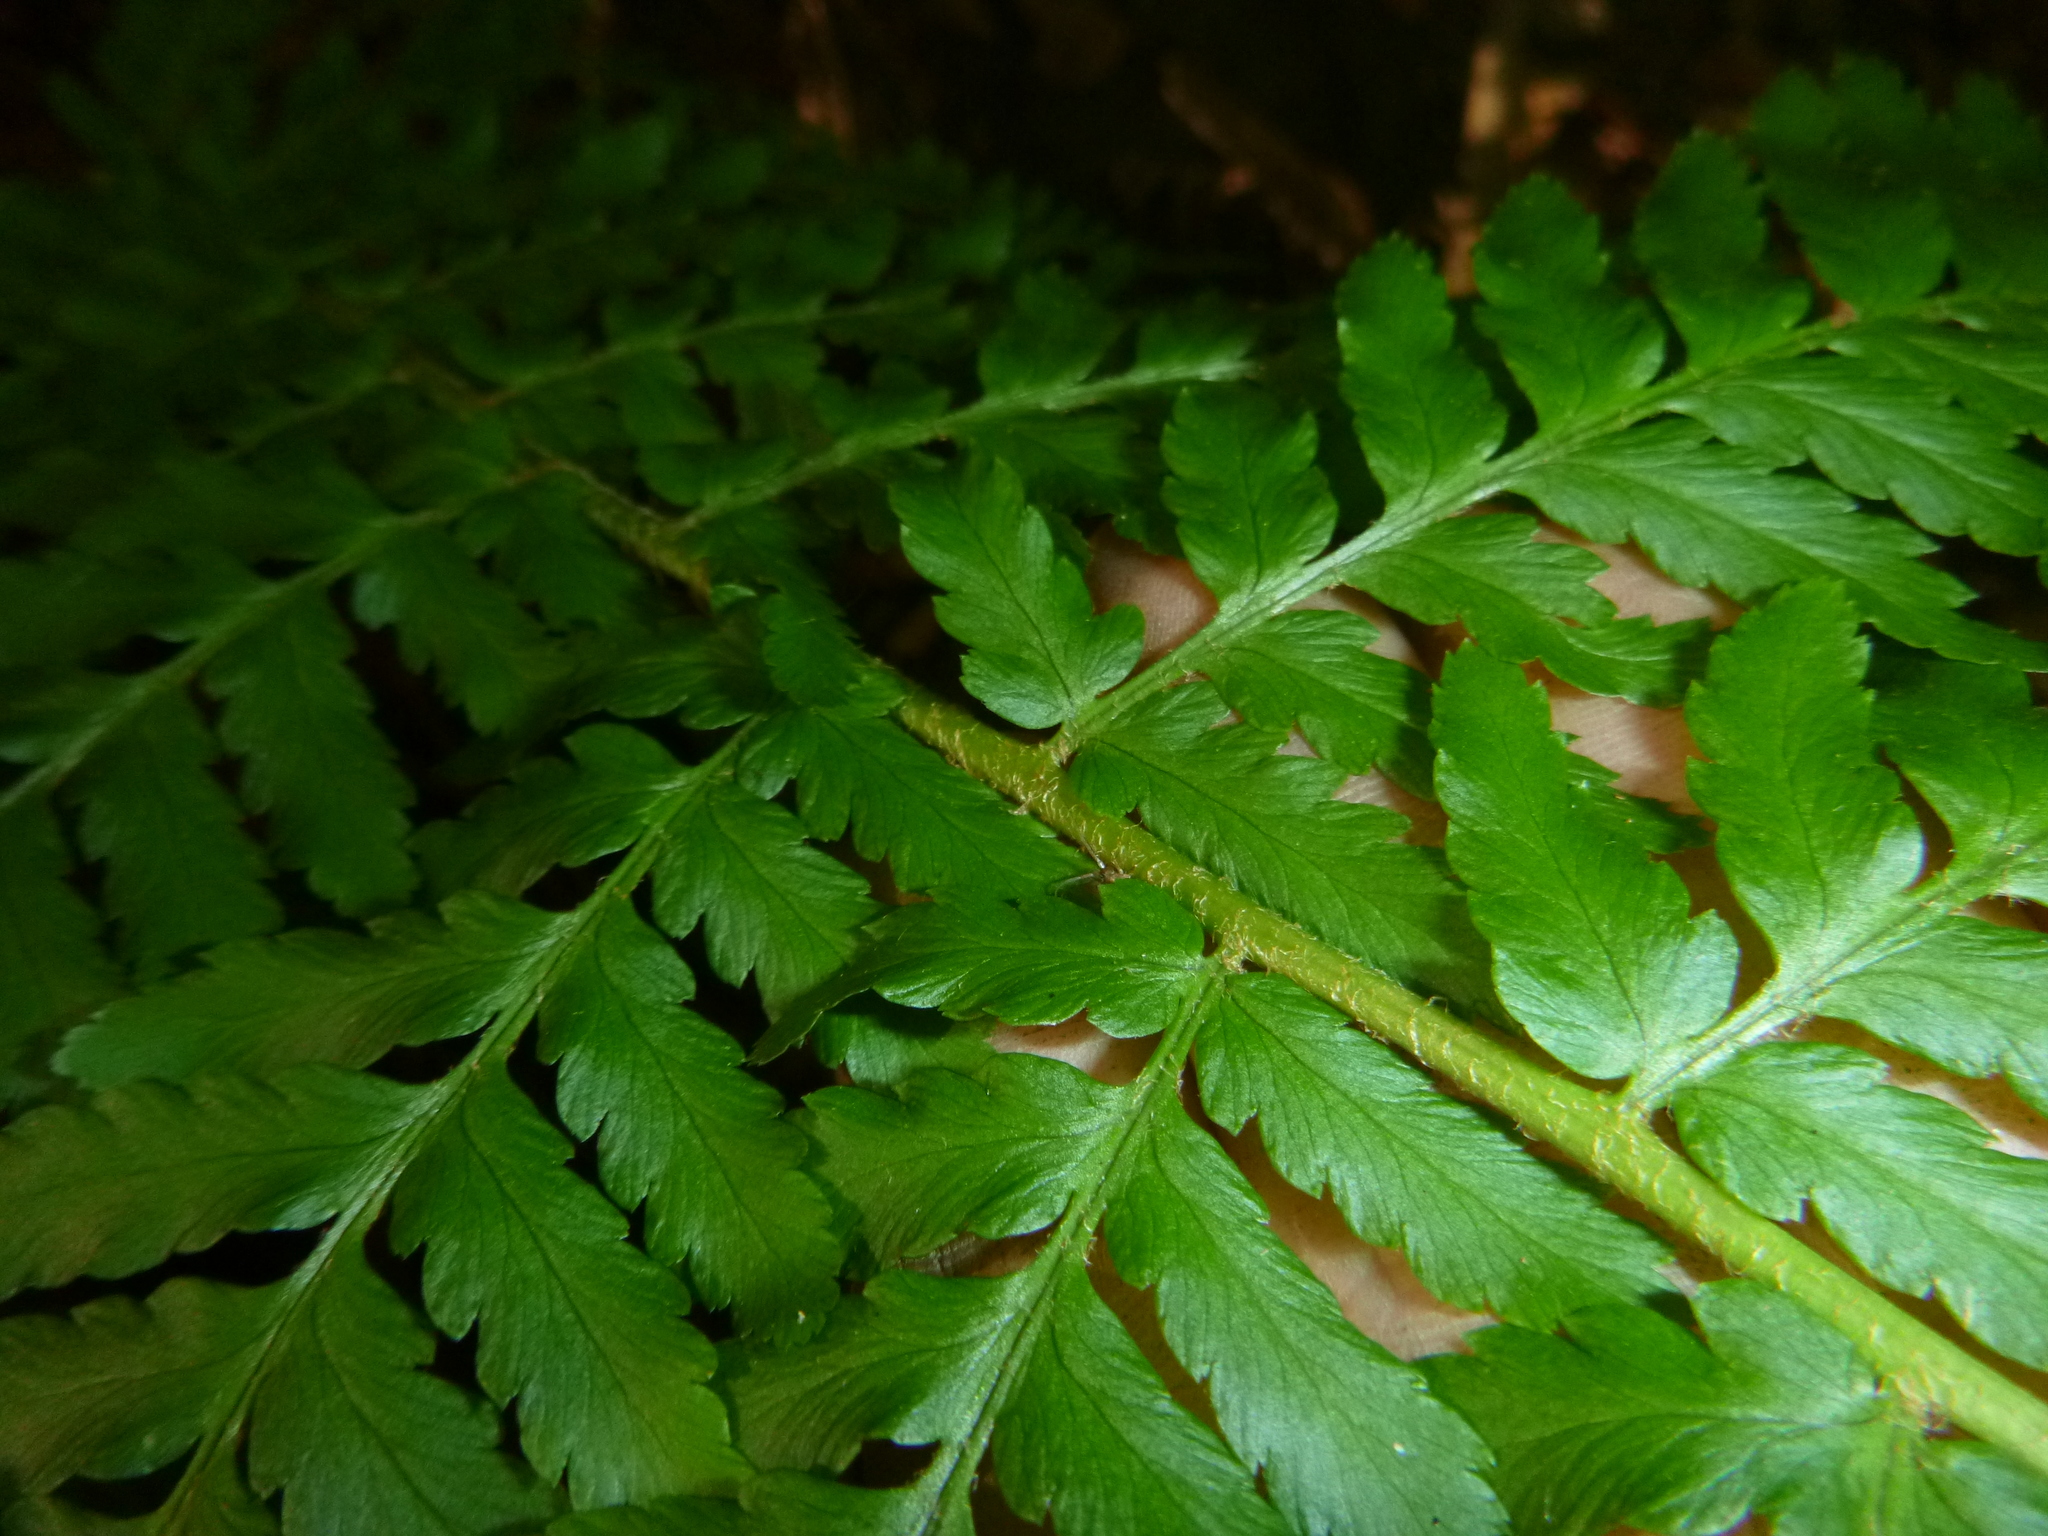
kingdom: Plantae
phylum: Tracheophyta
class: Polypodiopsida
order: Polypodiales
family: Dryopteridaceae
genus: Dryopteris
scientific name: Dryopteris filix-mas
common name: Male fern
